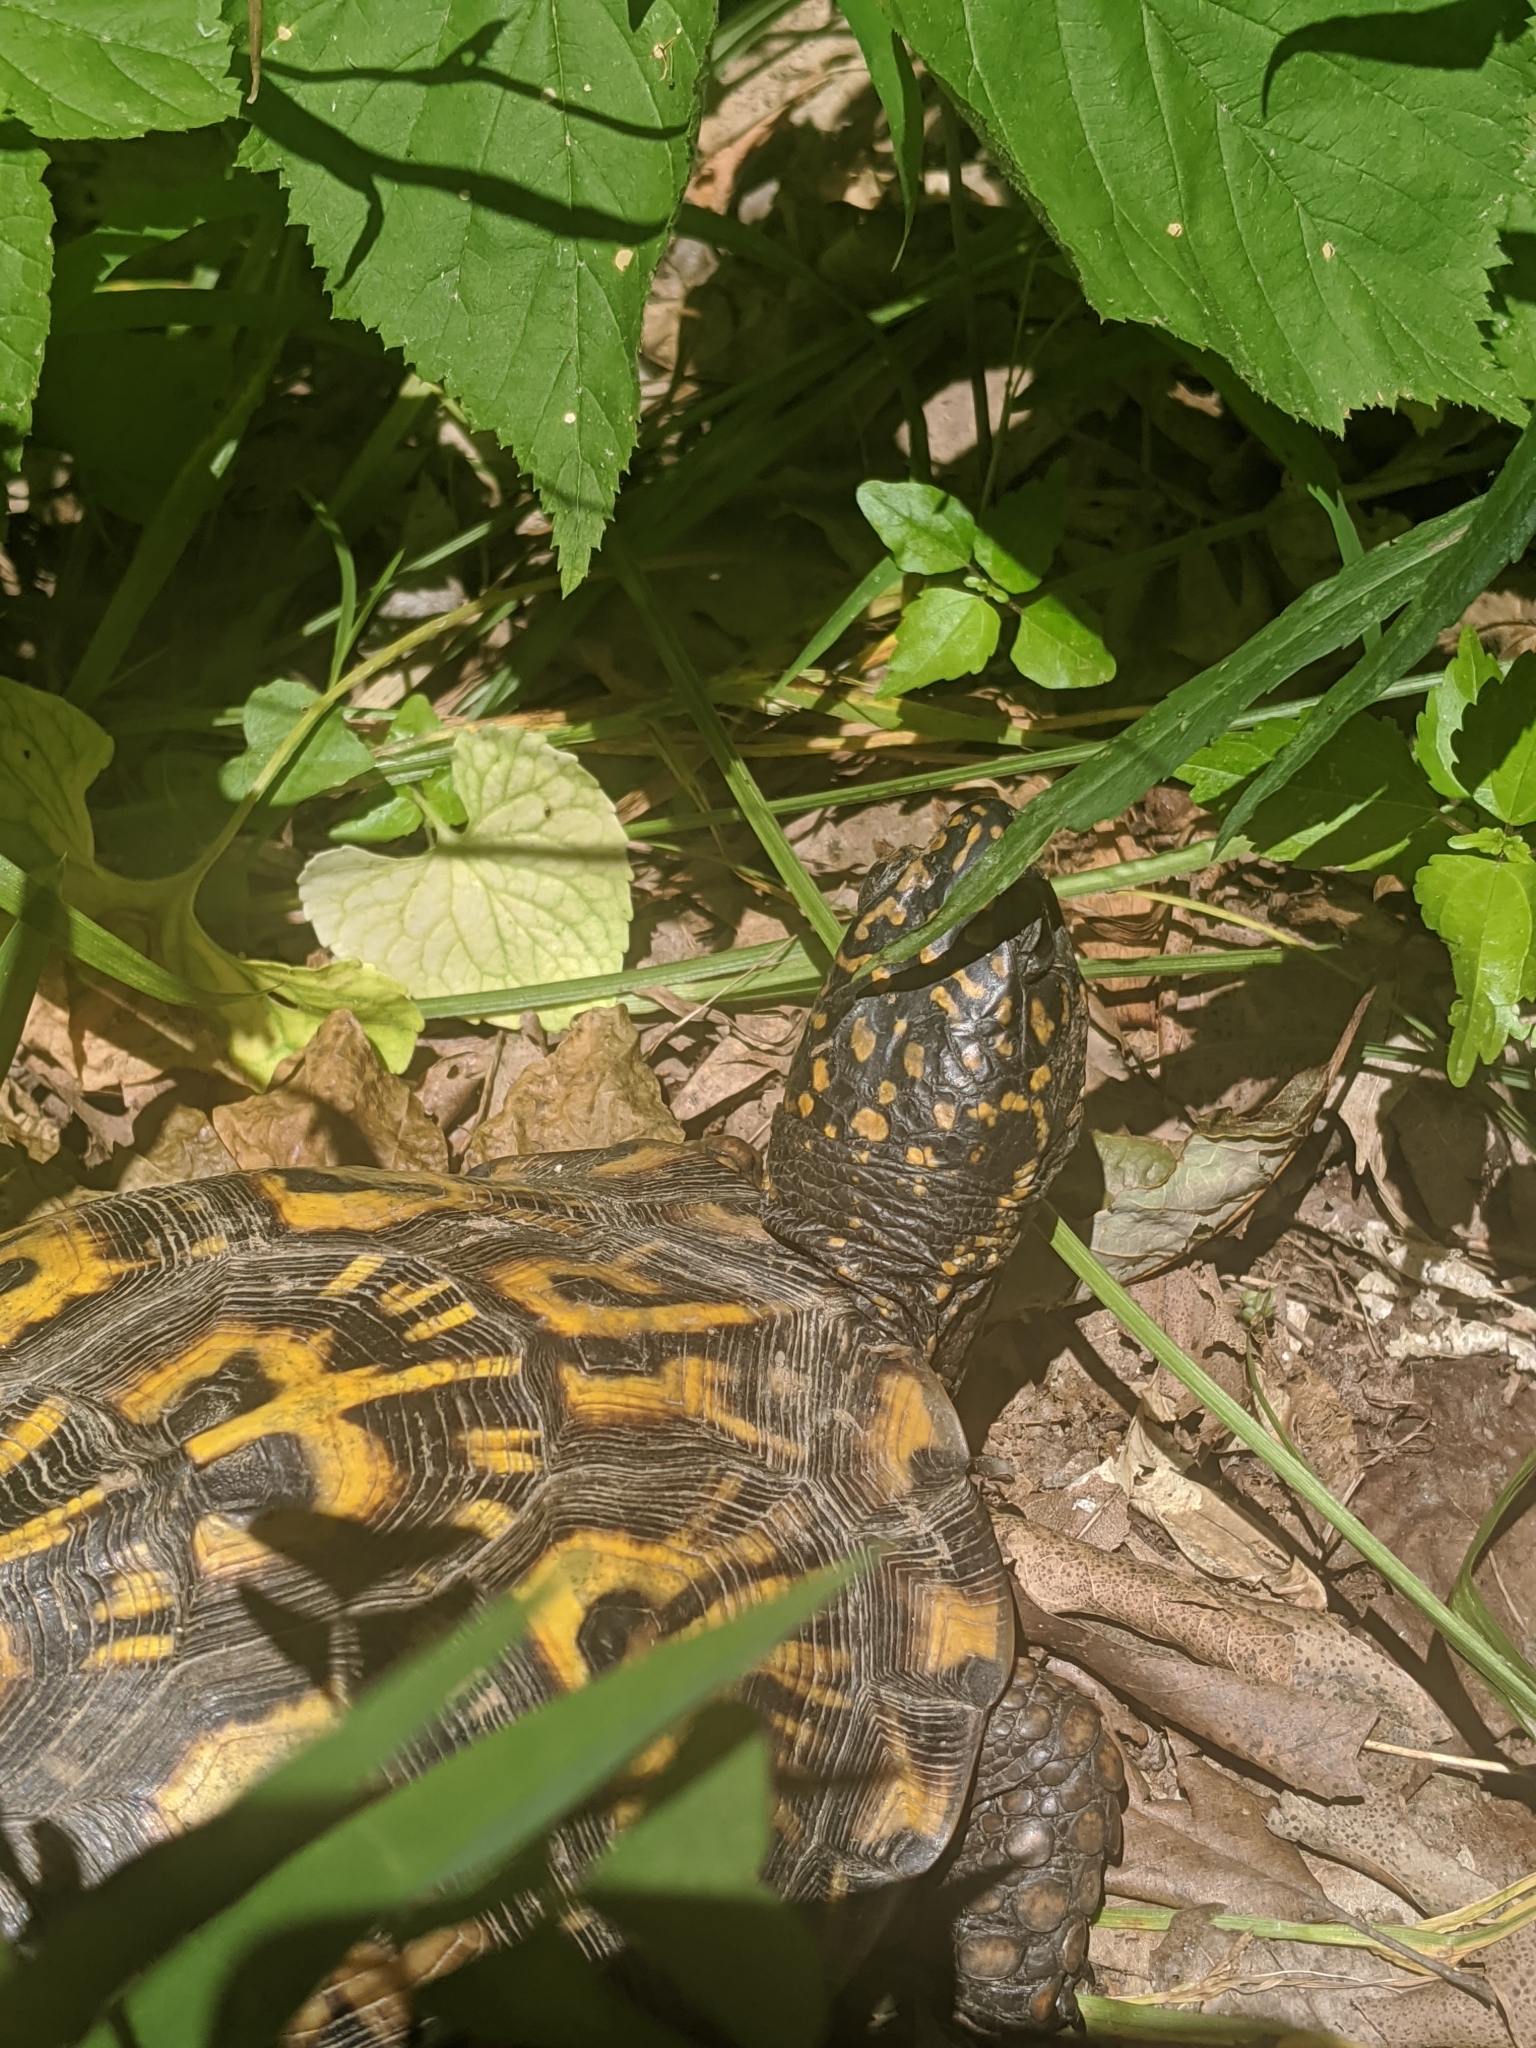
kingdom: Animalia
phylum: Chordata
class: Testudines
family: Emydidae
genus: Terrapene
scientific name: Terrapene carolina
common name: Common box turtle
